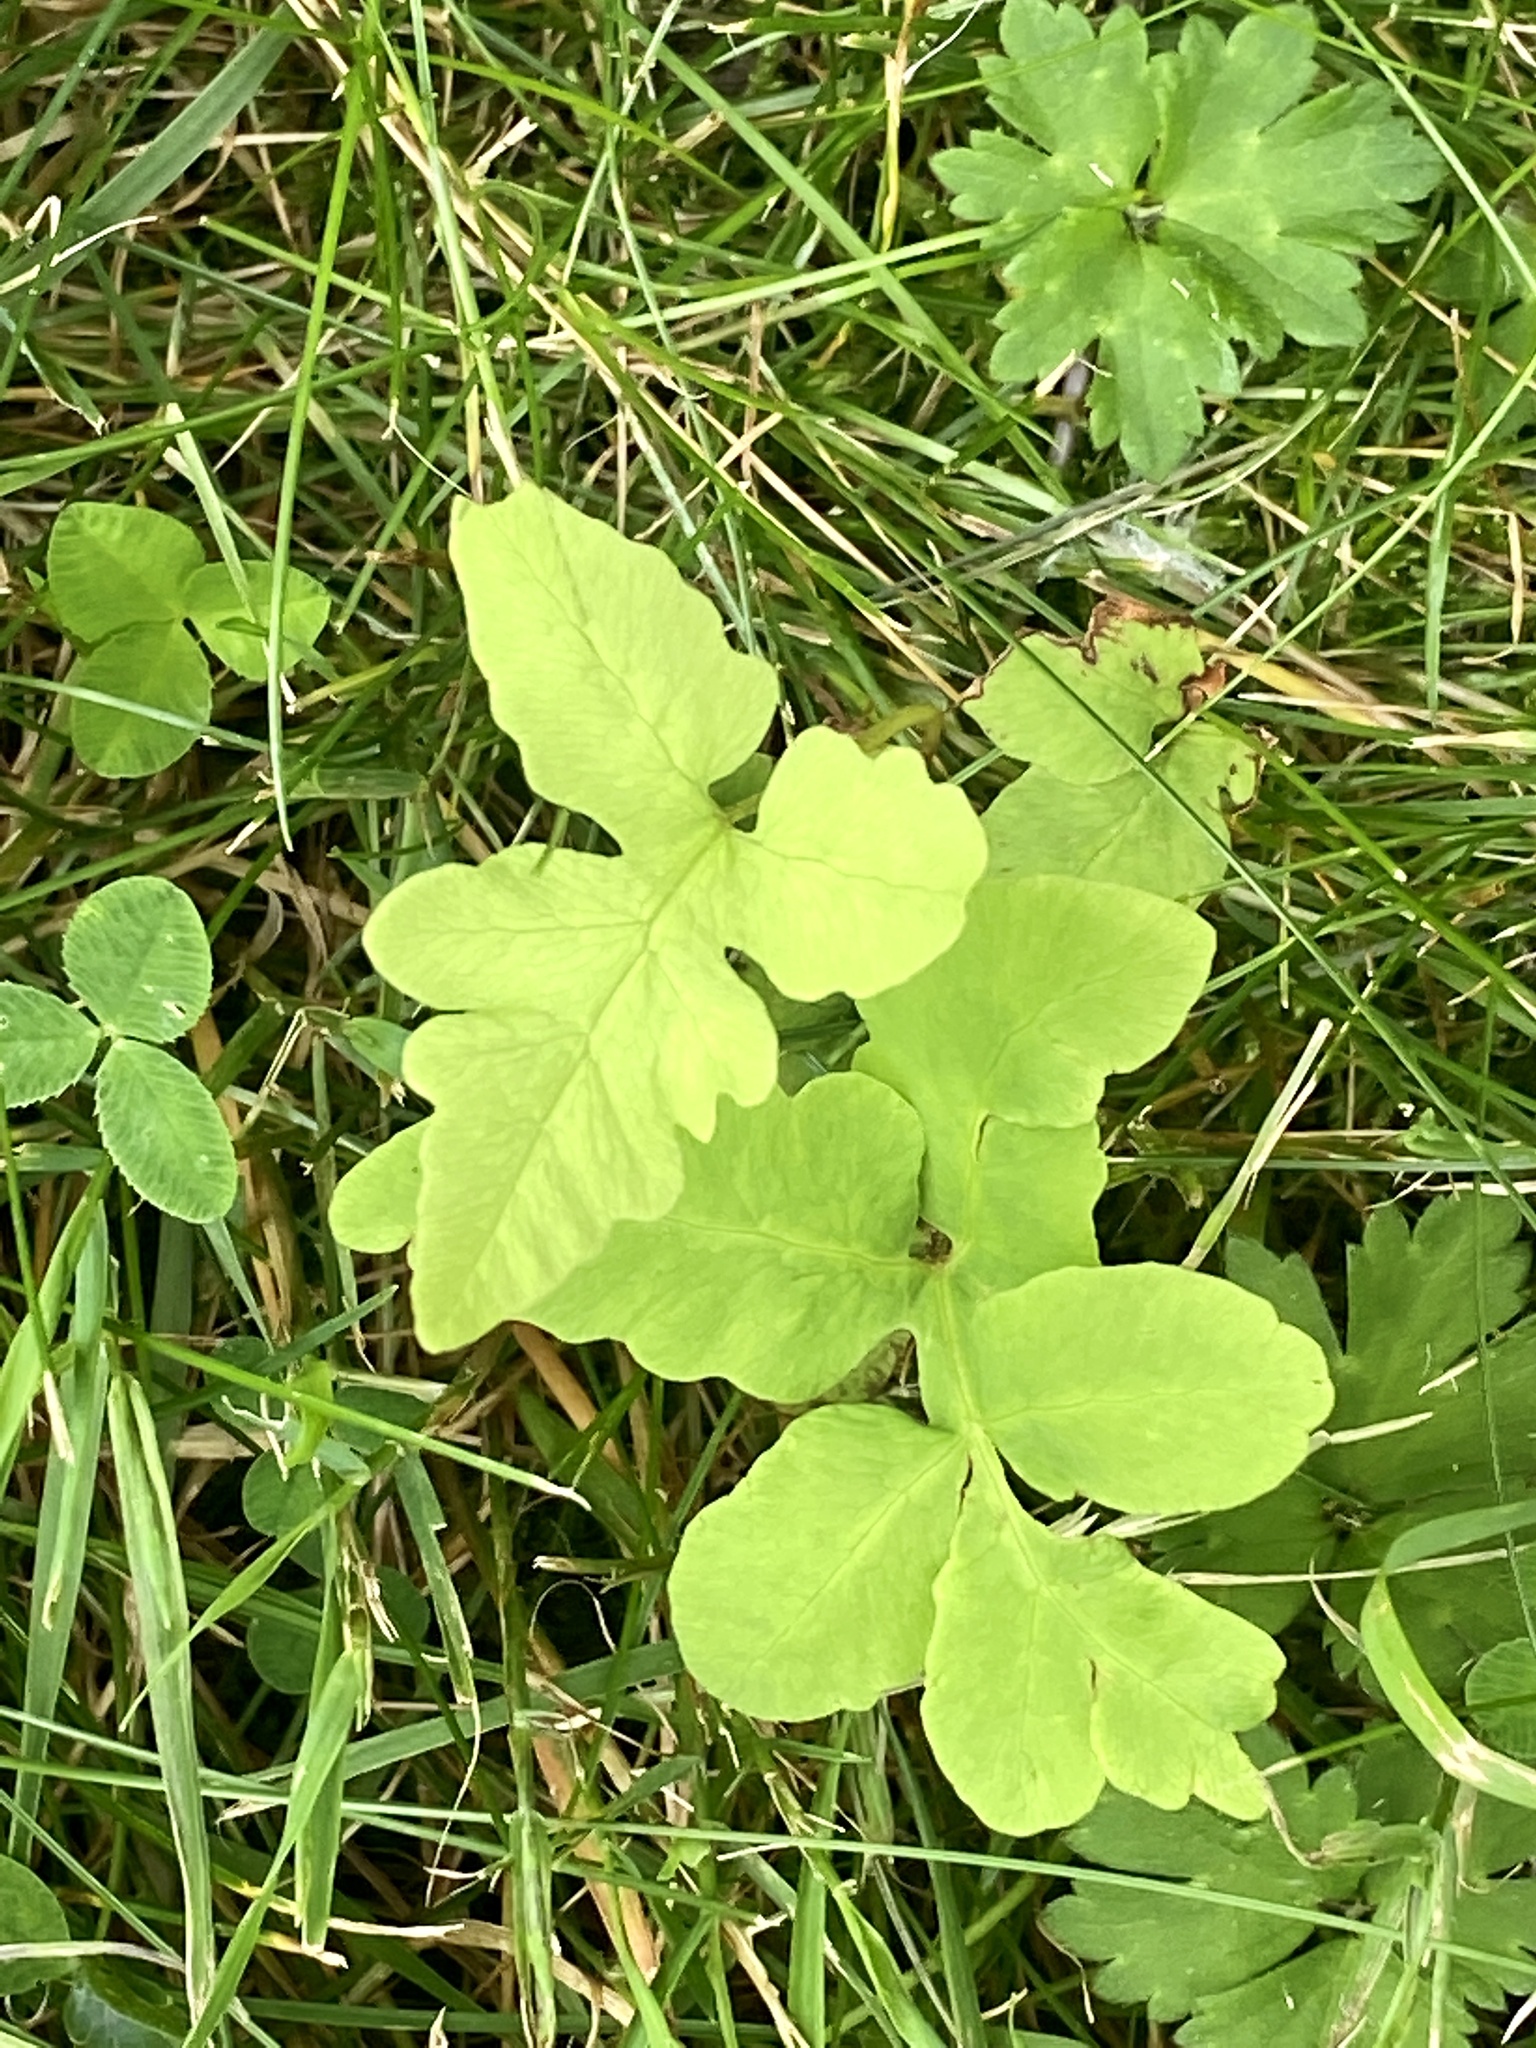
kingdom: Plantae
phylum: Tracheophyta
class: Polypodiopsida
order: Polypodiales
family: Onocleaceae
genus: Onoclea
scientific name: Onoclea sensibilis
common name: Sensitive fern
